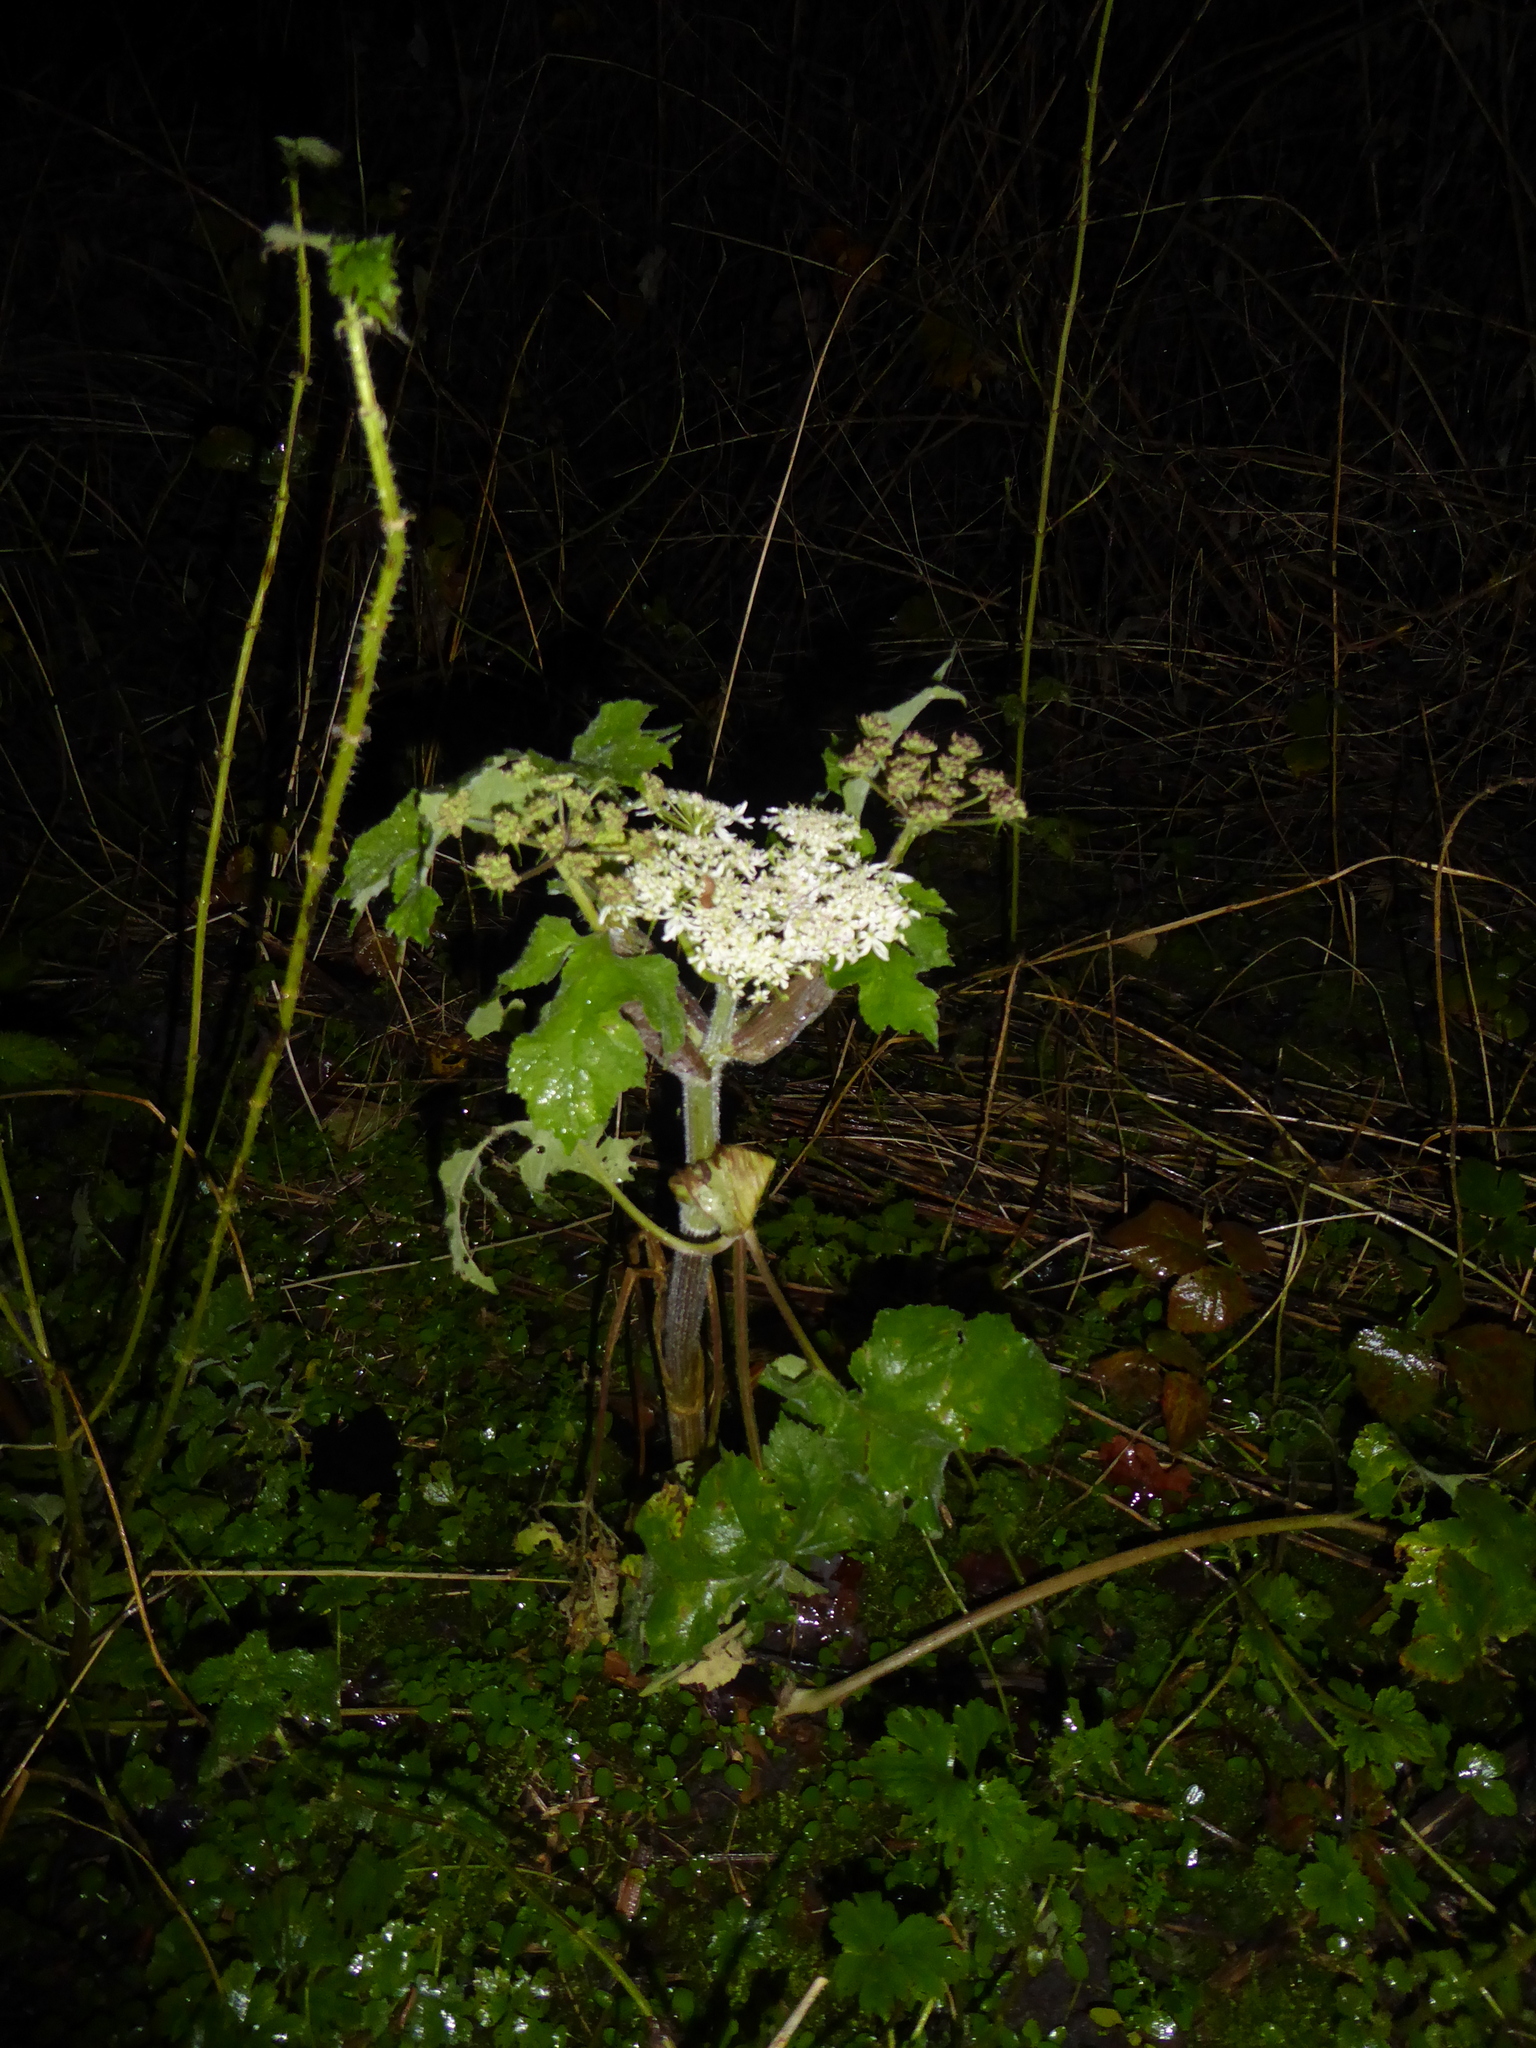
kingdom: Plantae
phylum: Tracheophyta
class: Magnoliopsida
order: Apiales
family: Apiaceae
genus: Heracleum
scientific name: Heracleum sphondylium
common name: Hogweed
